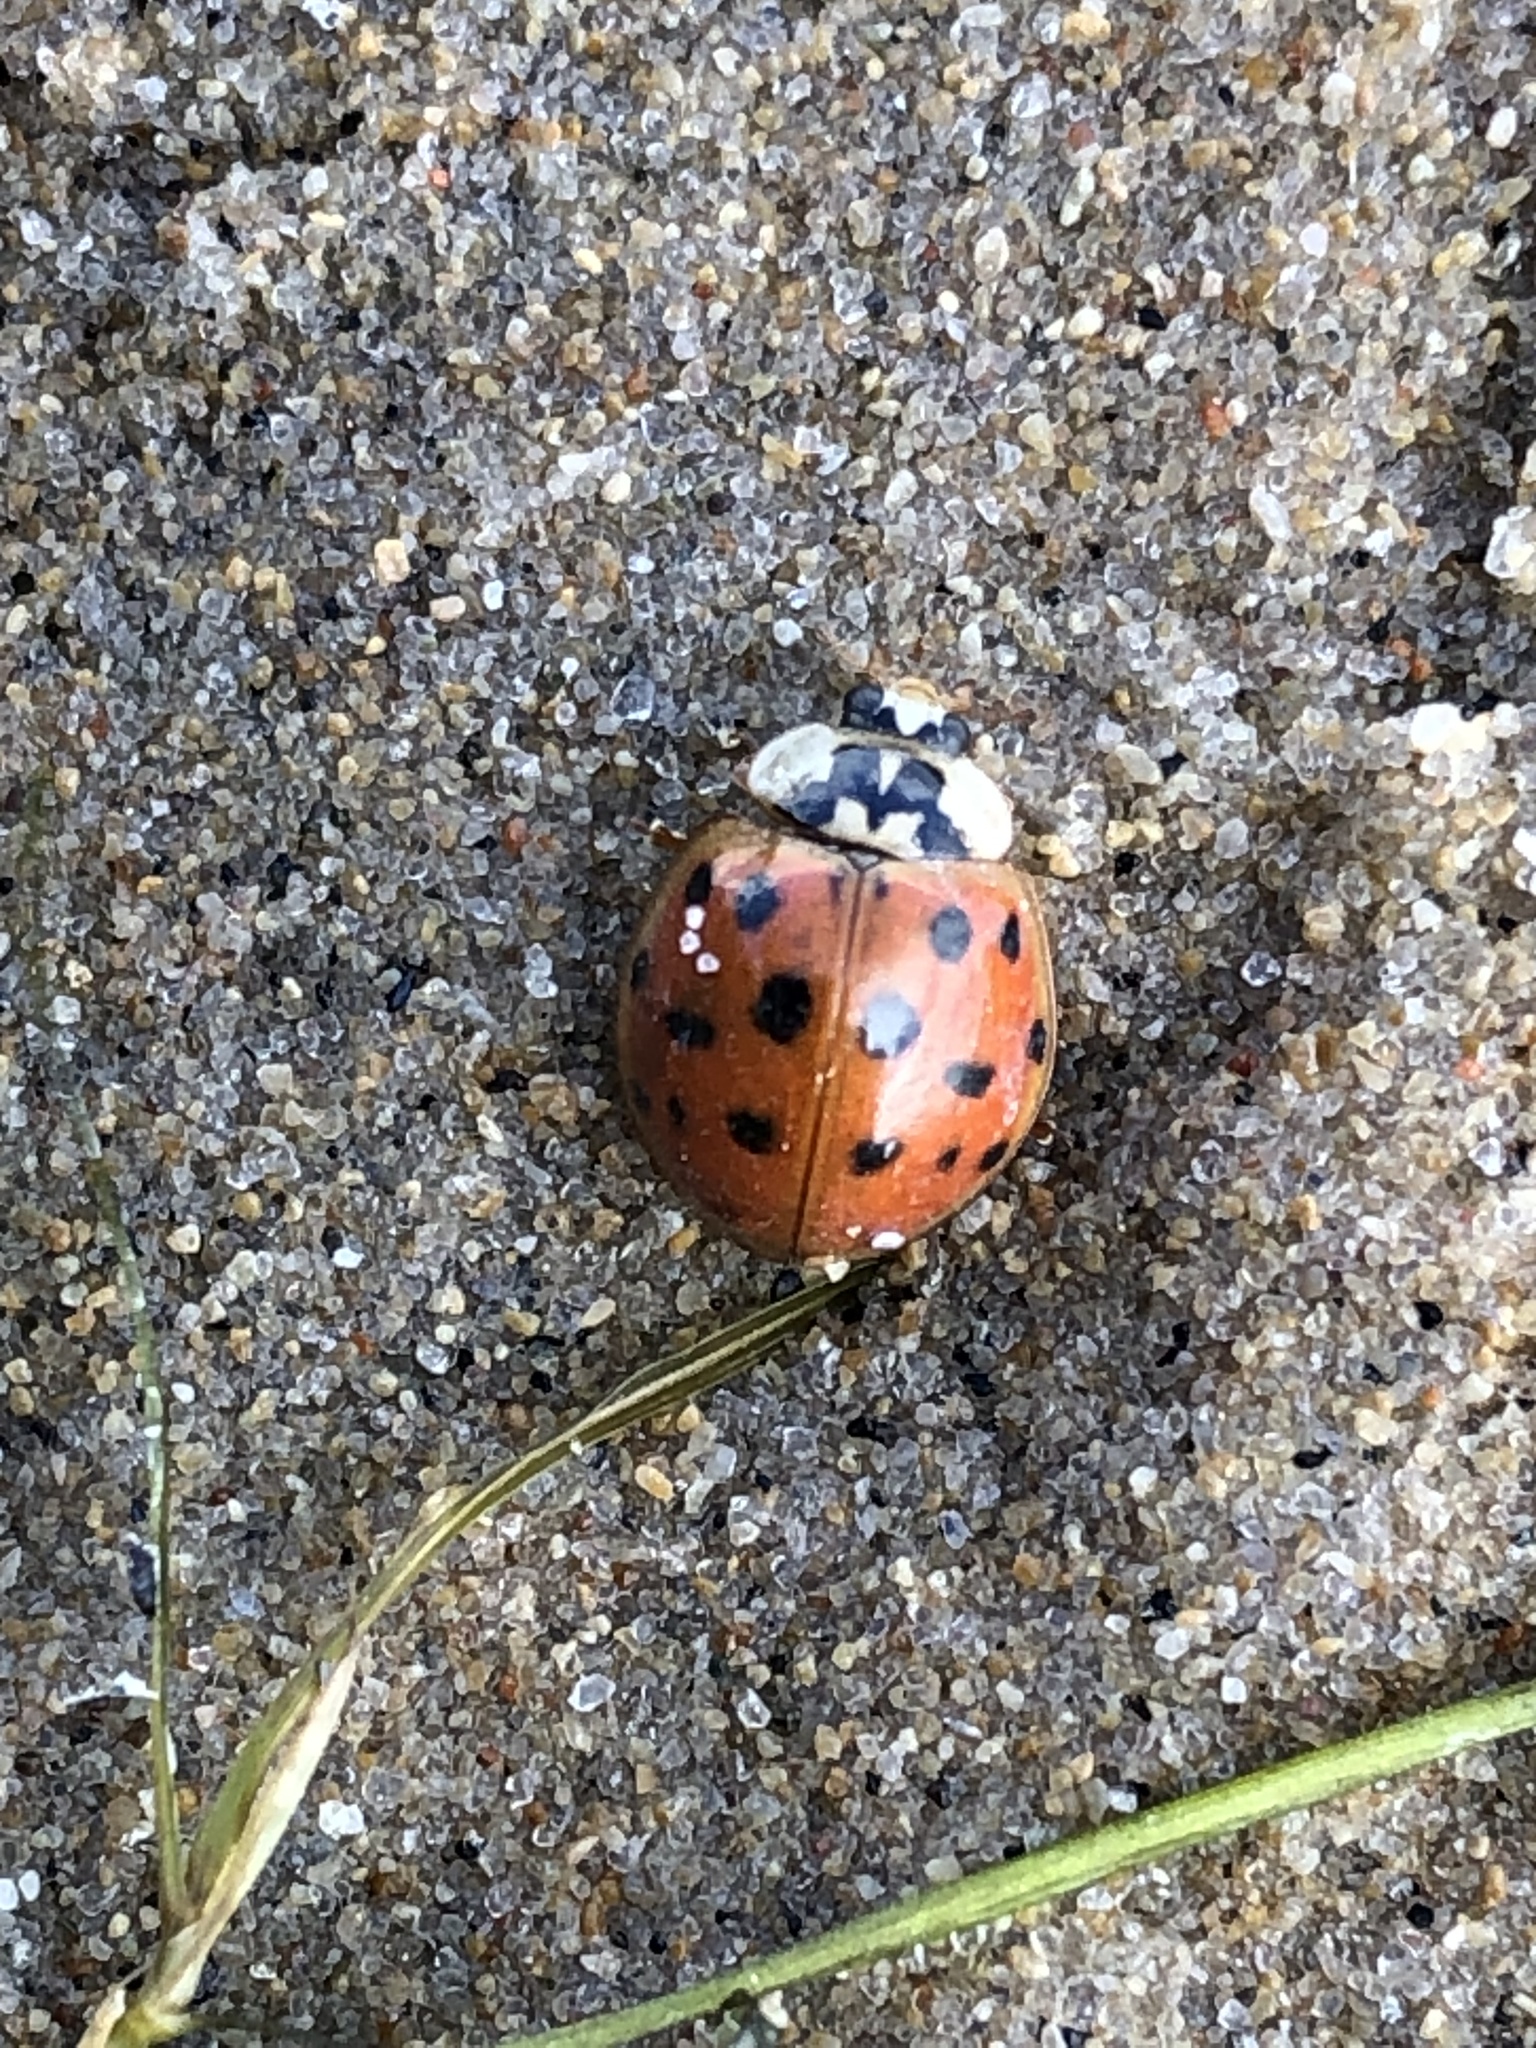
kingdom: Animalia
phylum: Arthropoda
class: Insecta
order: Coleoptera
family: Coccinellidae
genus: Harmonia
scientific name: Harmonia axyridis
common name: Harlequin ladybird
